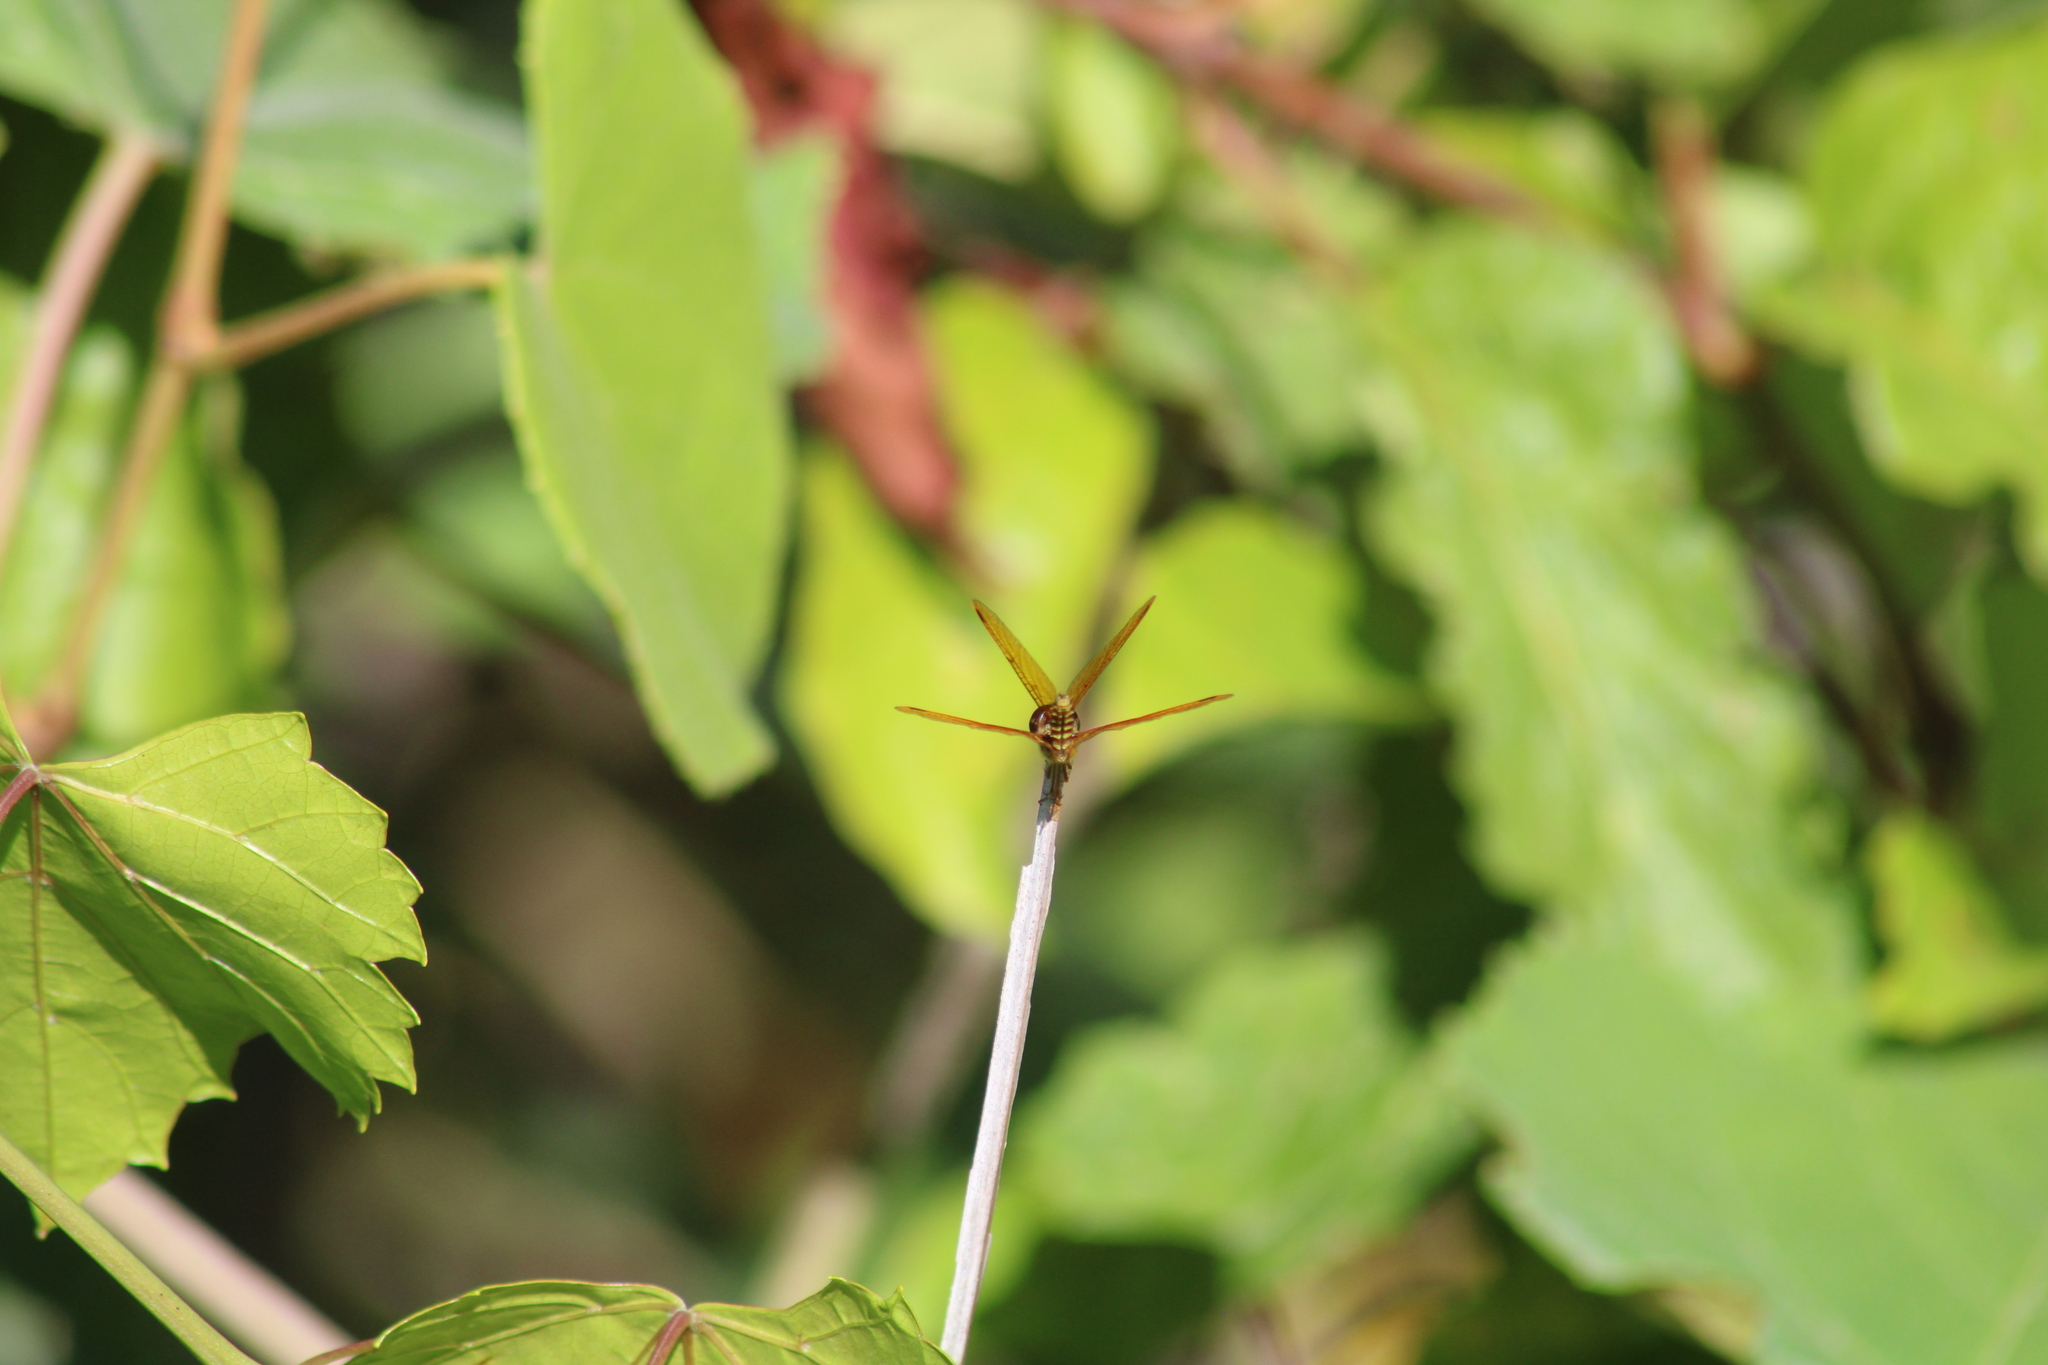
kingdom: Animalia
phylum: Arthropoda
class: Insecta
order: Odonata
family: Libellulidae
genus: Perithemis
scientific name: Perithemis tenera
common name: Eastern amberwing
